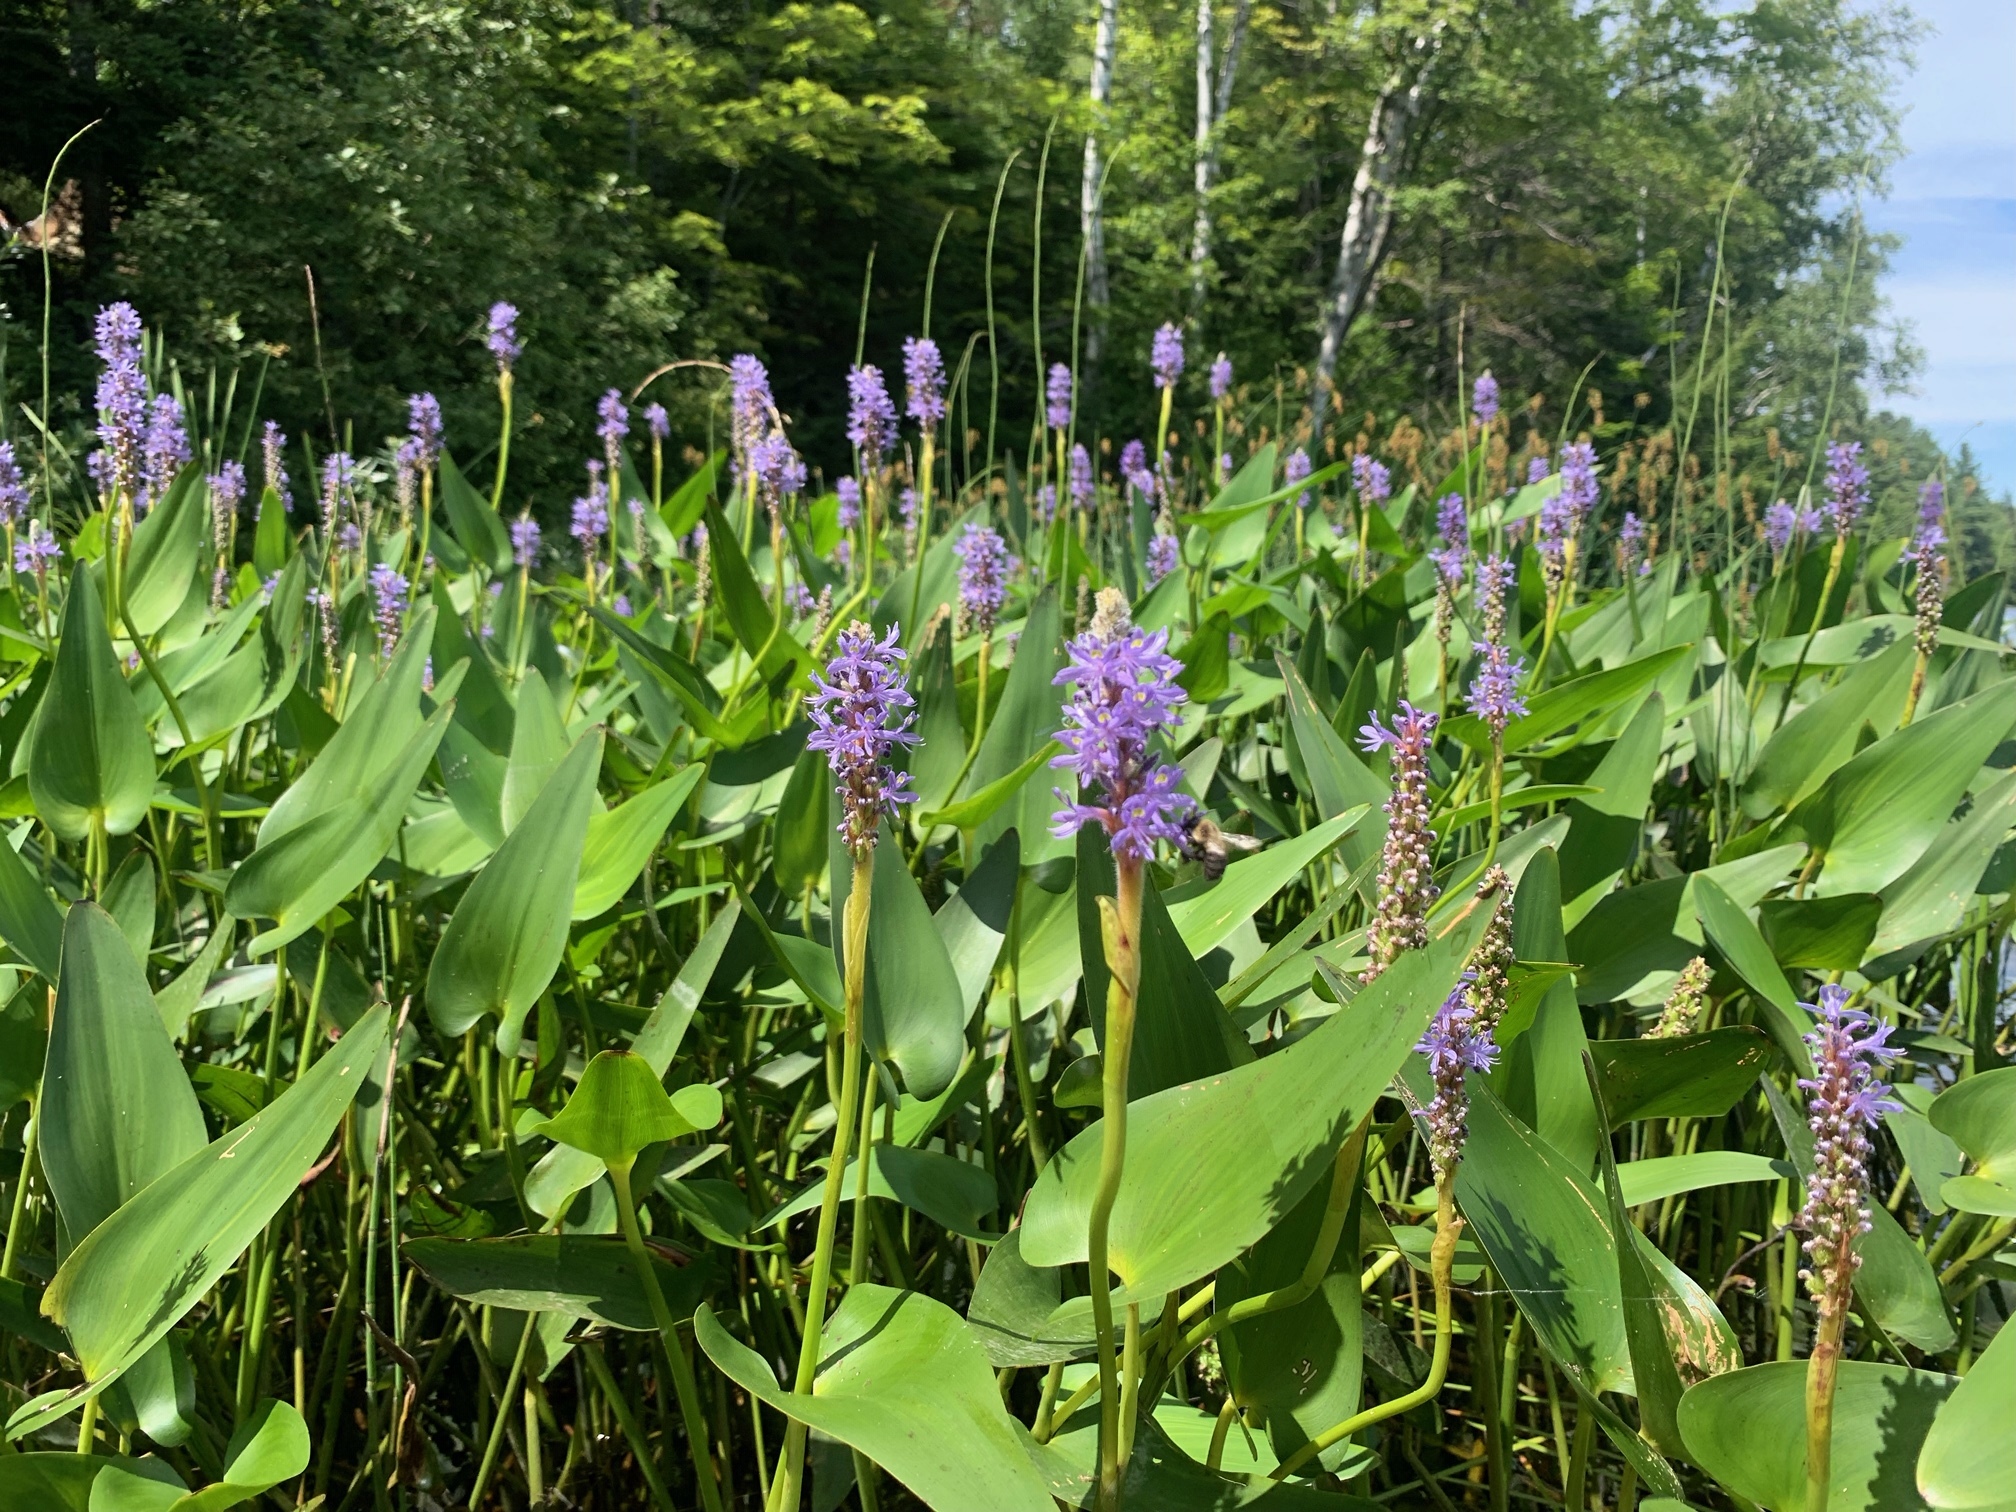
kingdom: Plantae
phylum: Tracheophyta
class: Liliopsida
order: Commelinales
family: Pontederiaceae
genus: Pontederia
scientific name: Pontederia cordata
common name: Pickerelweed
